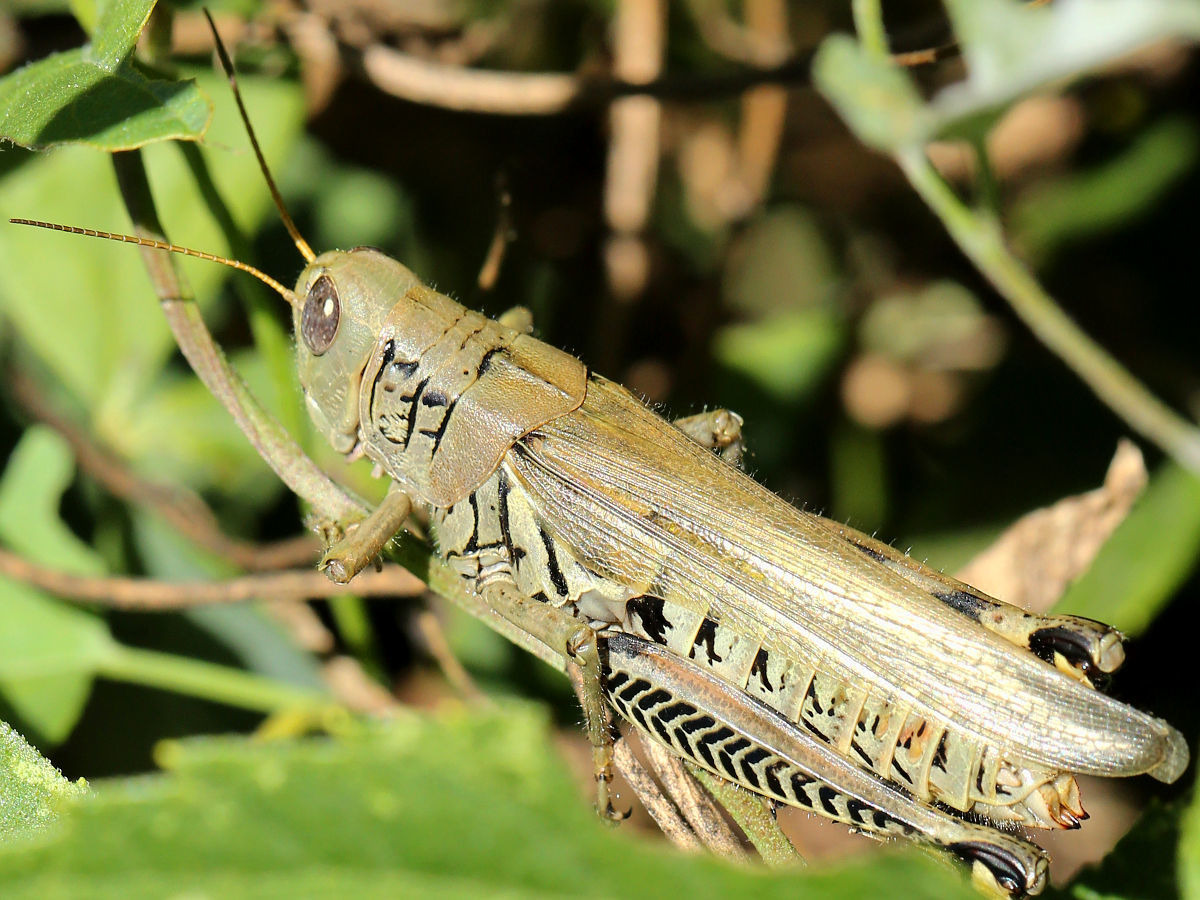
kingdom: Animalia
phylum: Arthropoda
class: Insecta
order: Orthoptera
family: Acrididae
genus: Melanoplus
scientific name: Melanoplus differentialis
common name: Differential grasshopper
